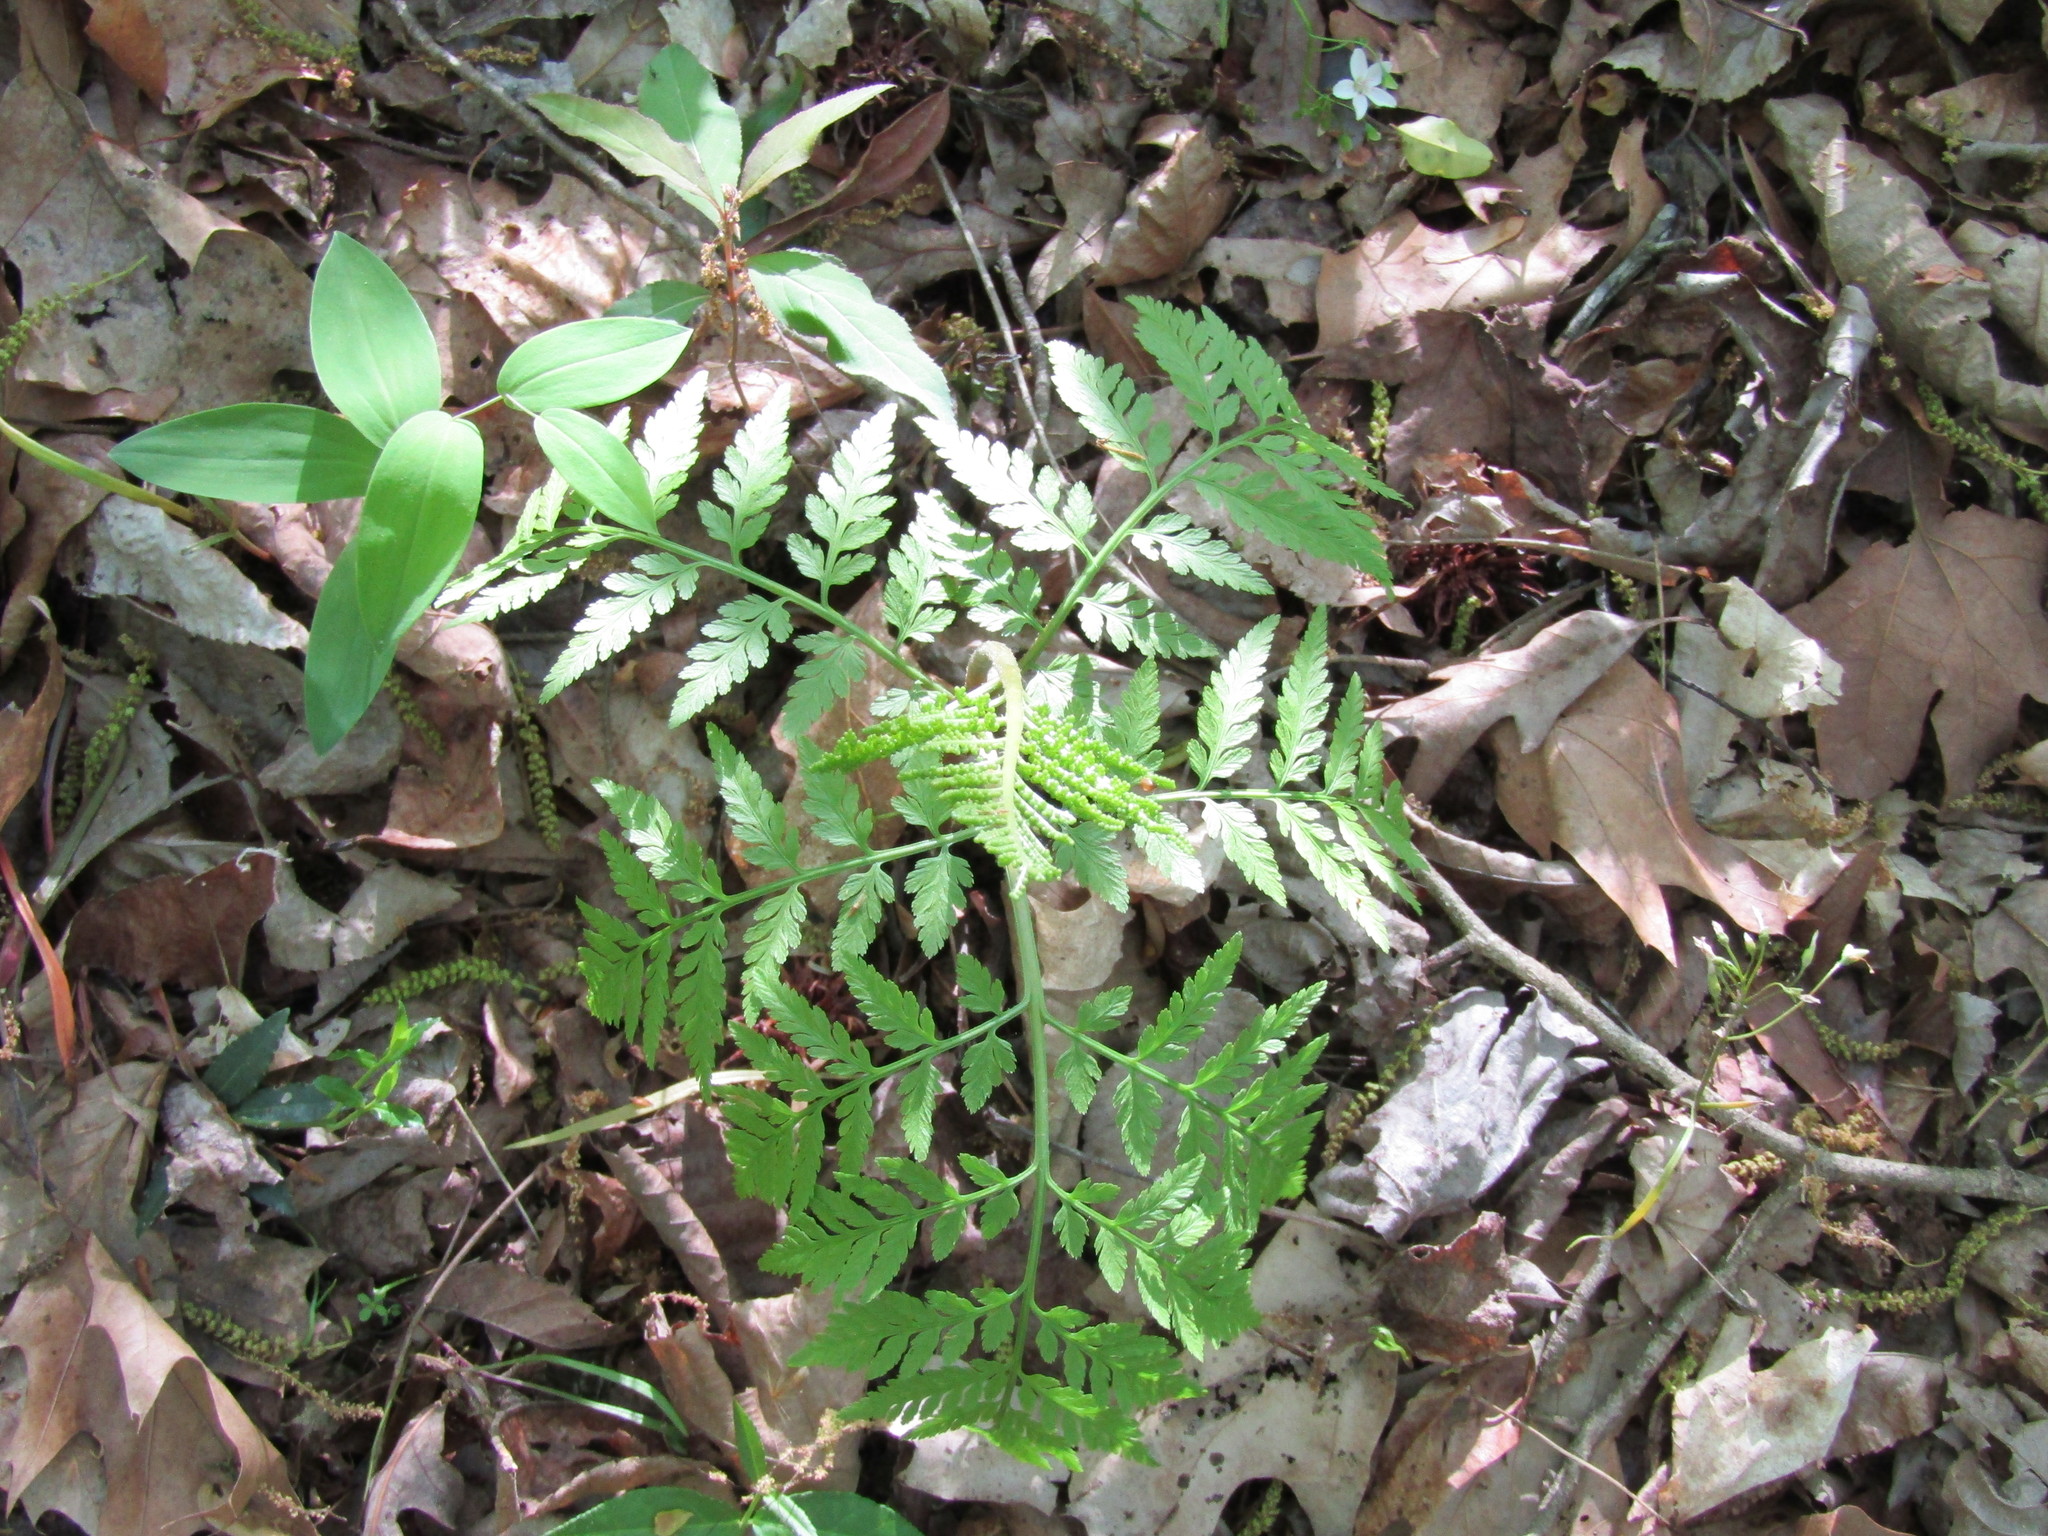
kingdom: Plantae
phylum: Tracheophyta
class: Polypodiopsida
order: Ophioglossales
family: Ophioglossaceae
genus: Botrypus
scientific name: Botrypus virginianus
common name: Common grapefern
